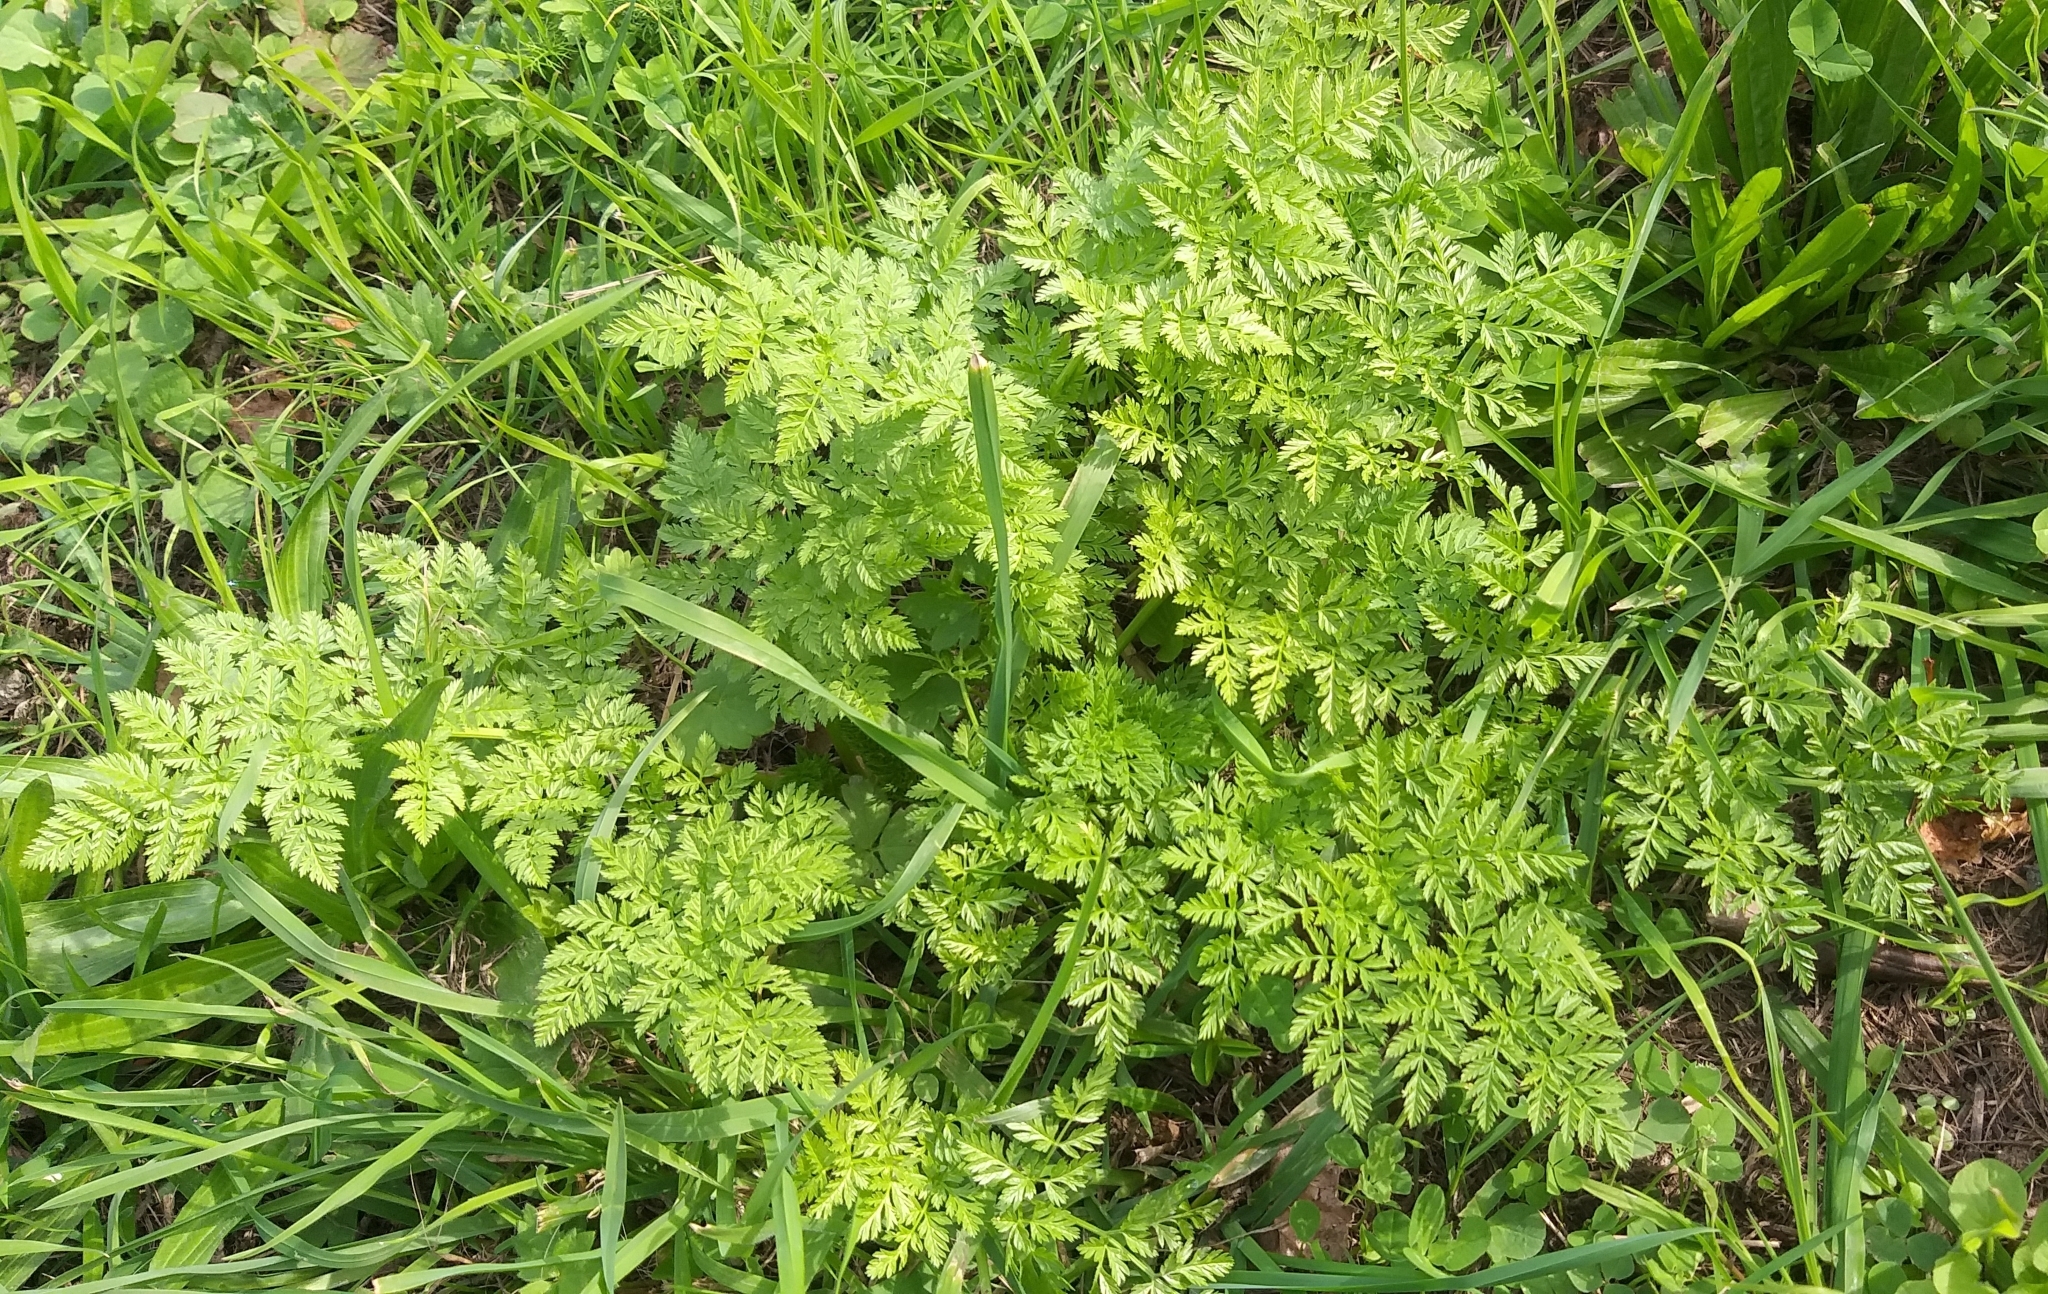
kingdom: Plantae
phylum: Tracheophyta
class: Magnoliopsida
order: Apiales
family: Apiaceae
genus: Anthriscus
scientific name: Anthriscus sylvestris
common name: Cow parsley
